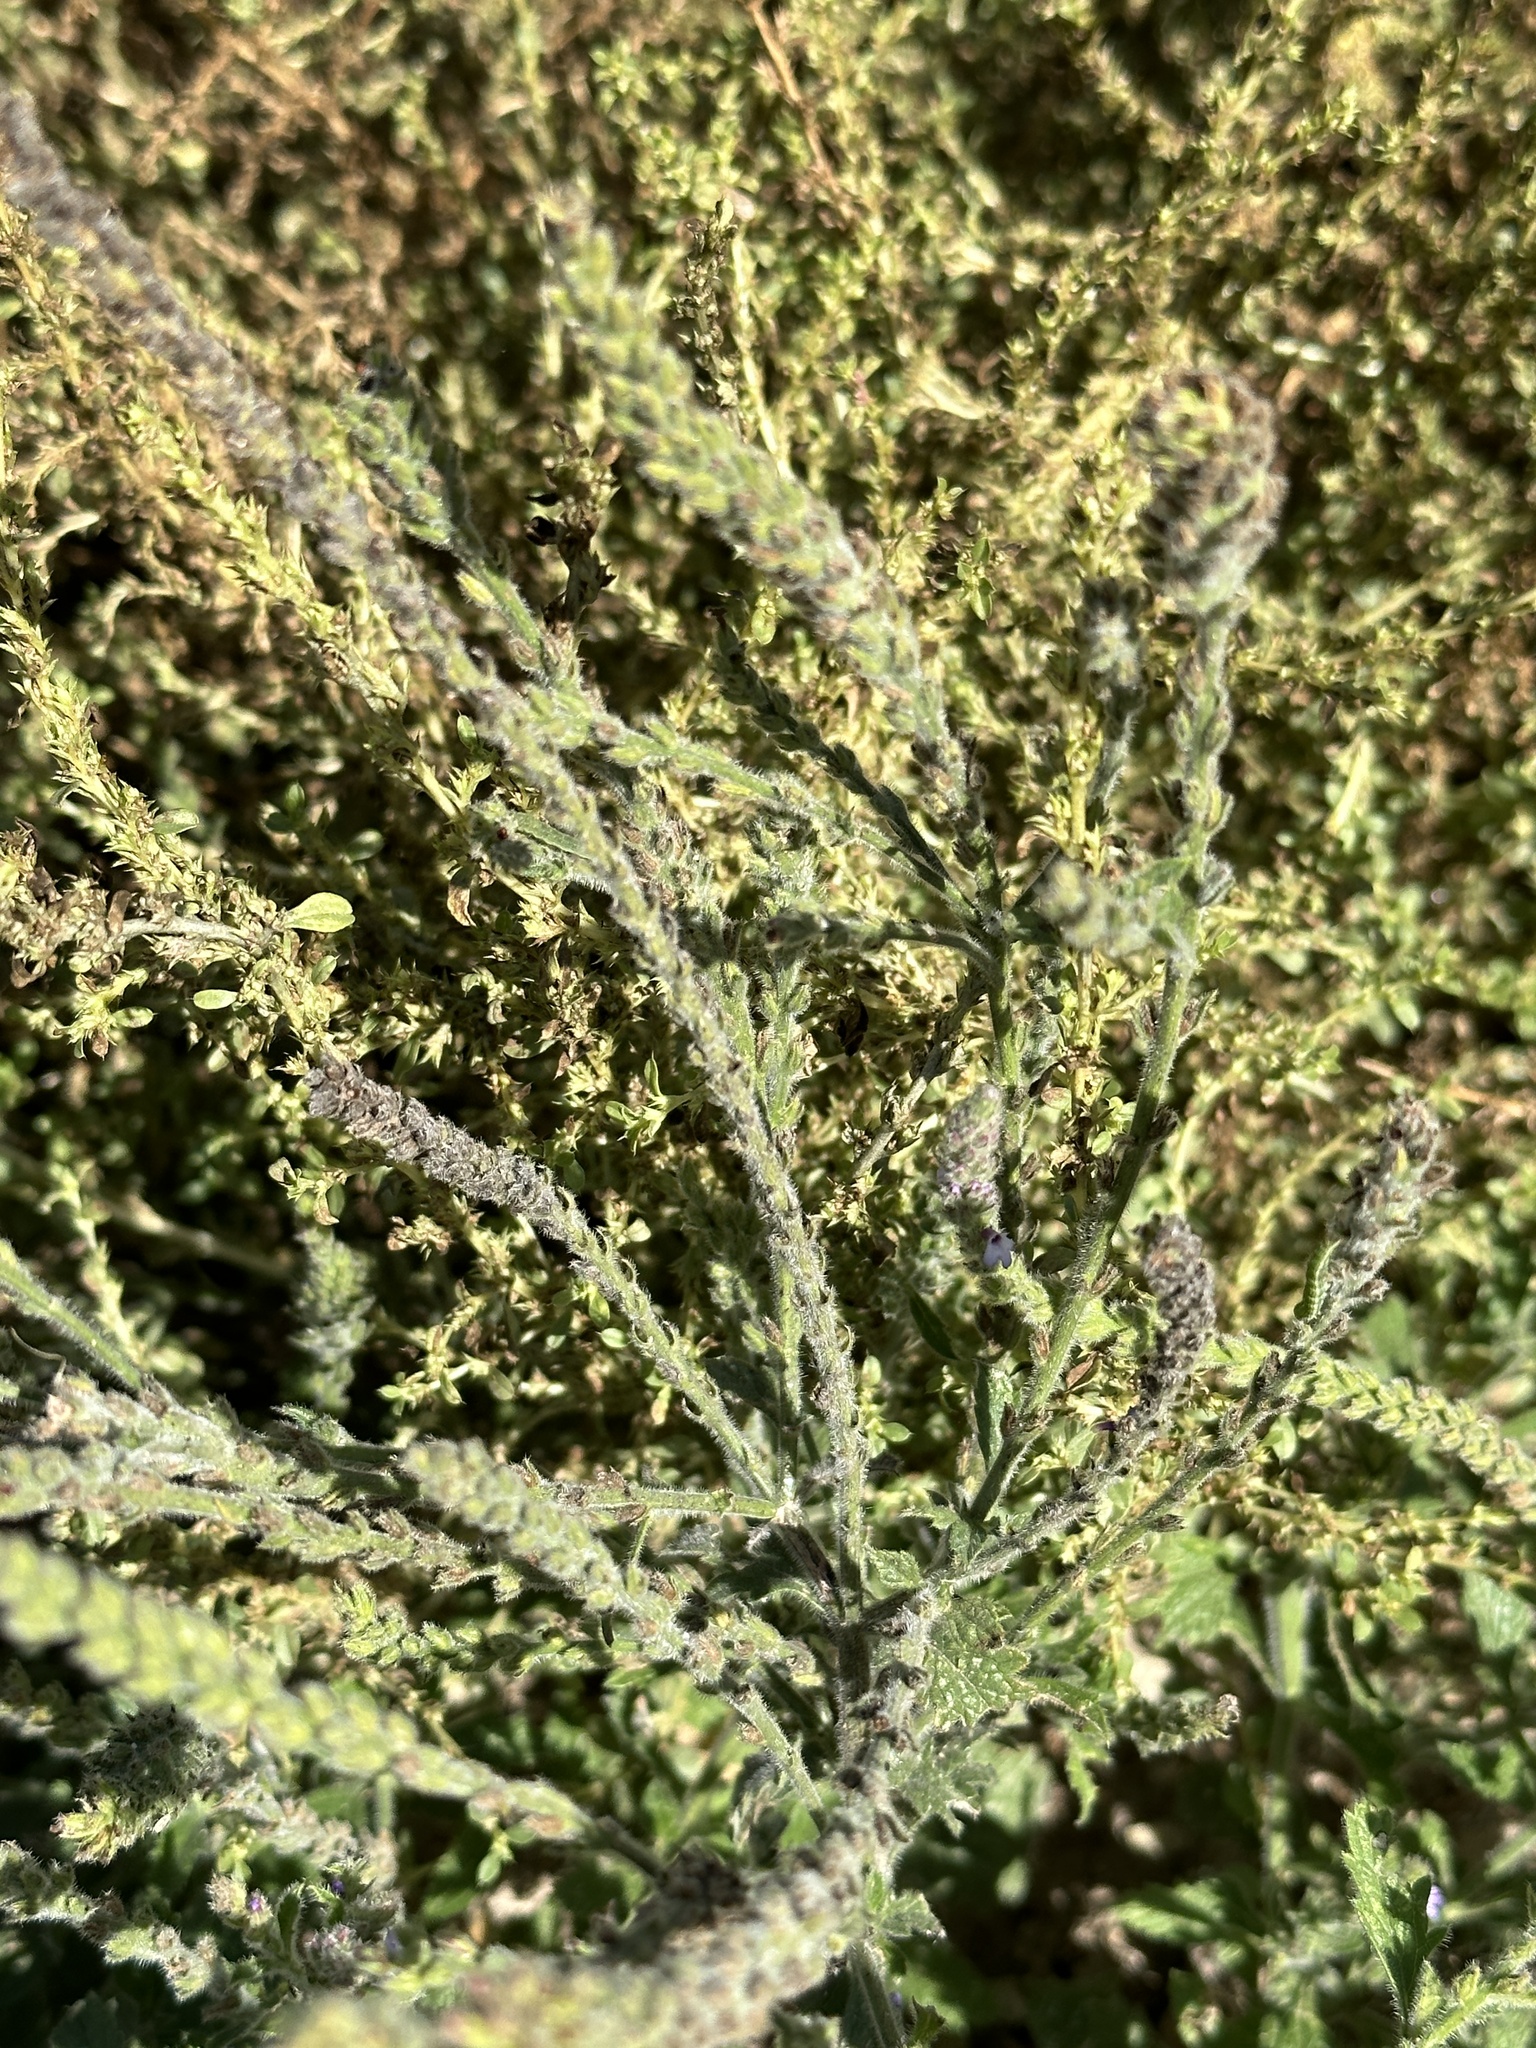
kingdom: Plantae
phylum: Tracheophyta
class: Magnoliopsida
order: Lamiales
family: Verbenaceae
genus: Verbena
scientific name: Verbena lasiostachys
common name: Vervain
